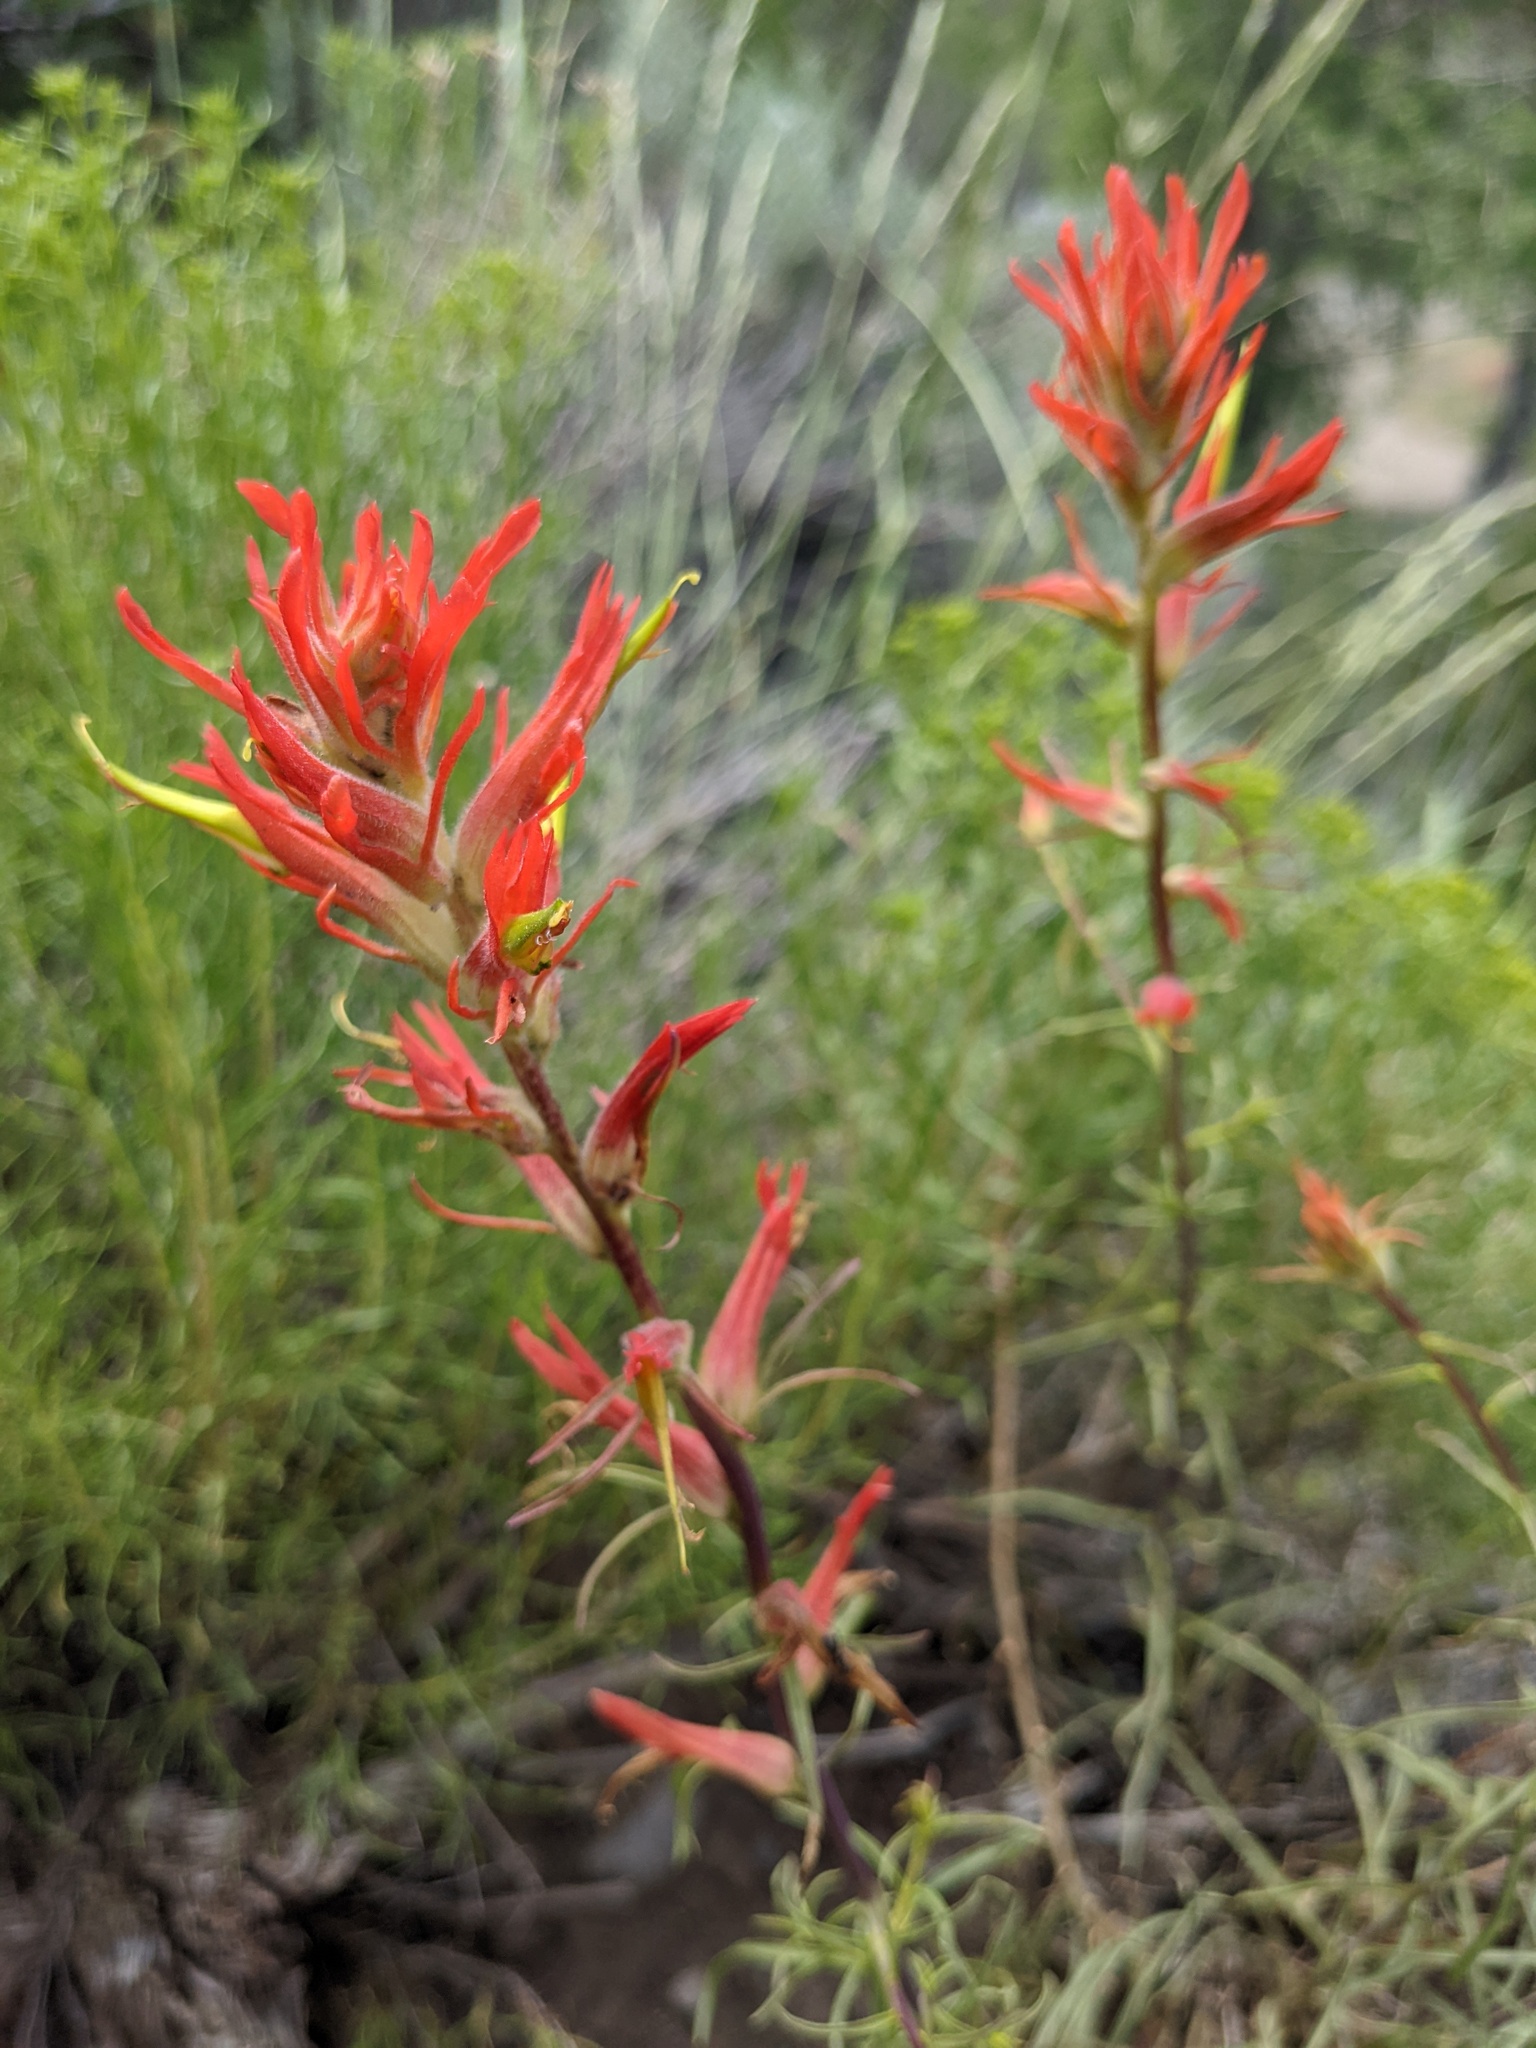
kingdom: Plantae
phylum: Tracheophyta
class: Magnoliopsida
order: Lamiales
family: Orobanchaceae
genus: Castilleja
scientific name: Castilleja linariifolia
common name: Wyoming paintbrush
